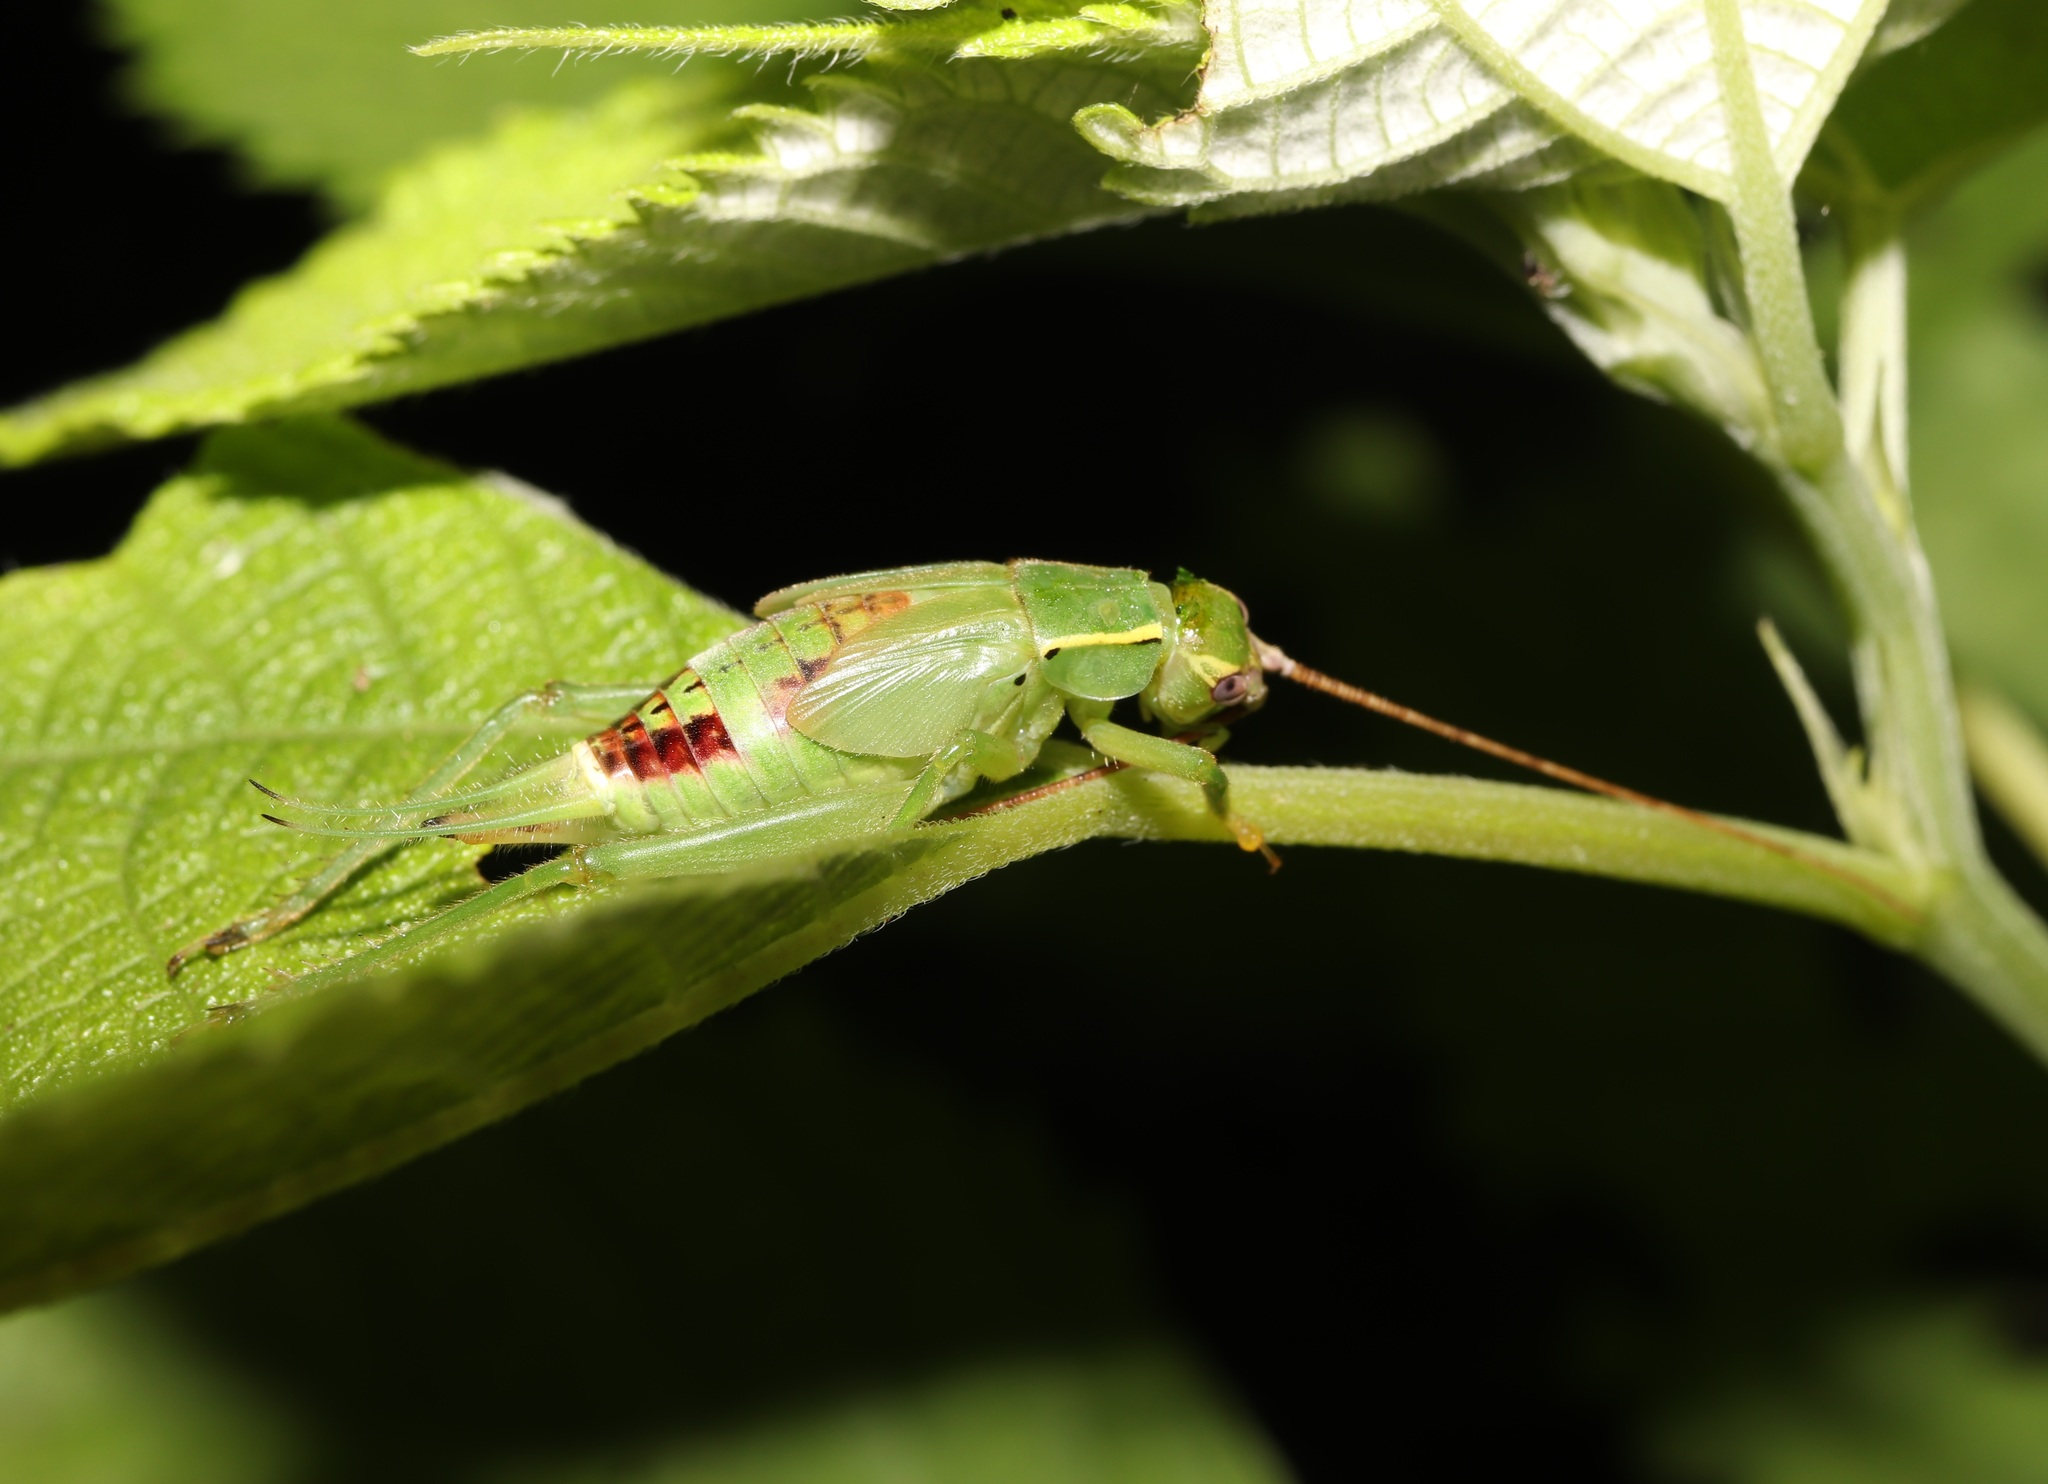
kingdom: Animalia
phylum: Arthropoda
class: Insecta
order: Orthoptera
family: Gryllidae
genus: Truljalia
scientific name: Truljalia hibinonis
